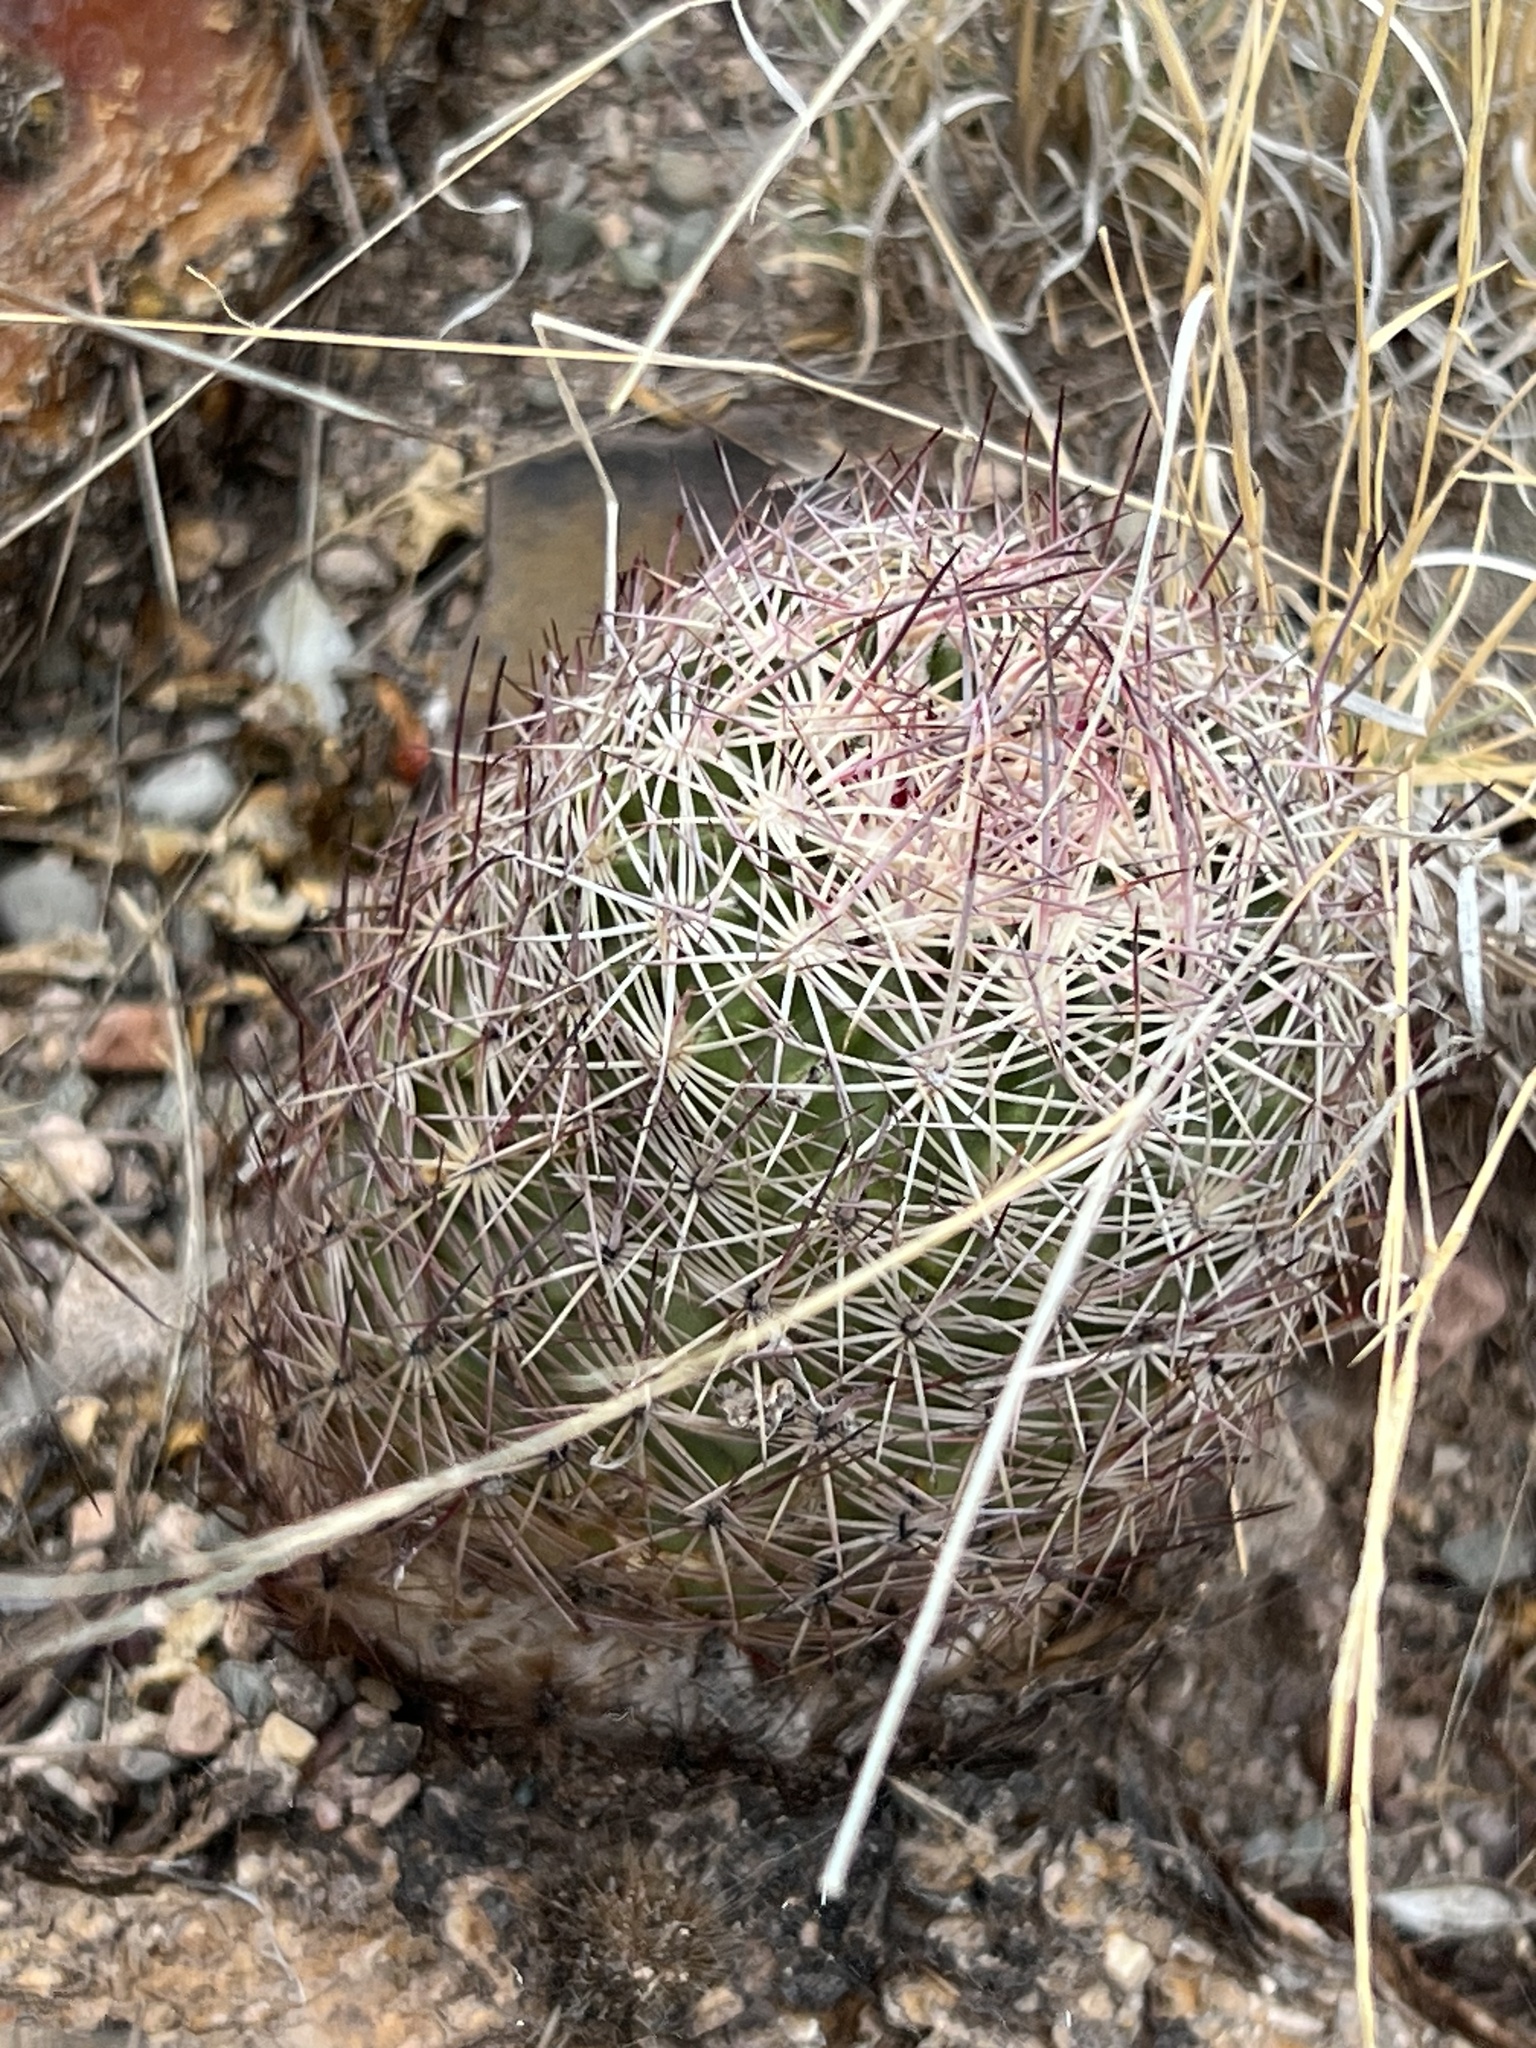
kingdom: Plantae
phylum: Tracheophyta
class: Magnoliopsida
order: Caryophyllales
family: Cactaceae
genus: Sclerocactus
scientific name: Sclerocactus johnsonii
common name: Eight-spine fishhook cactus
